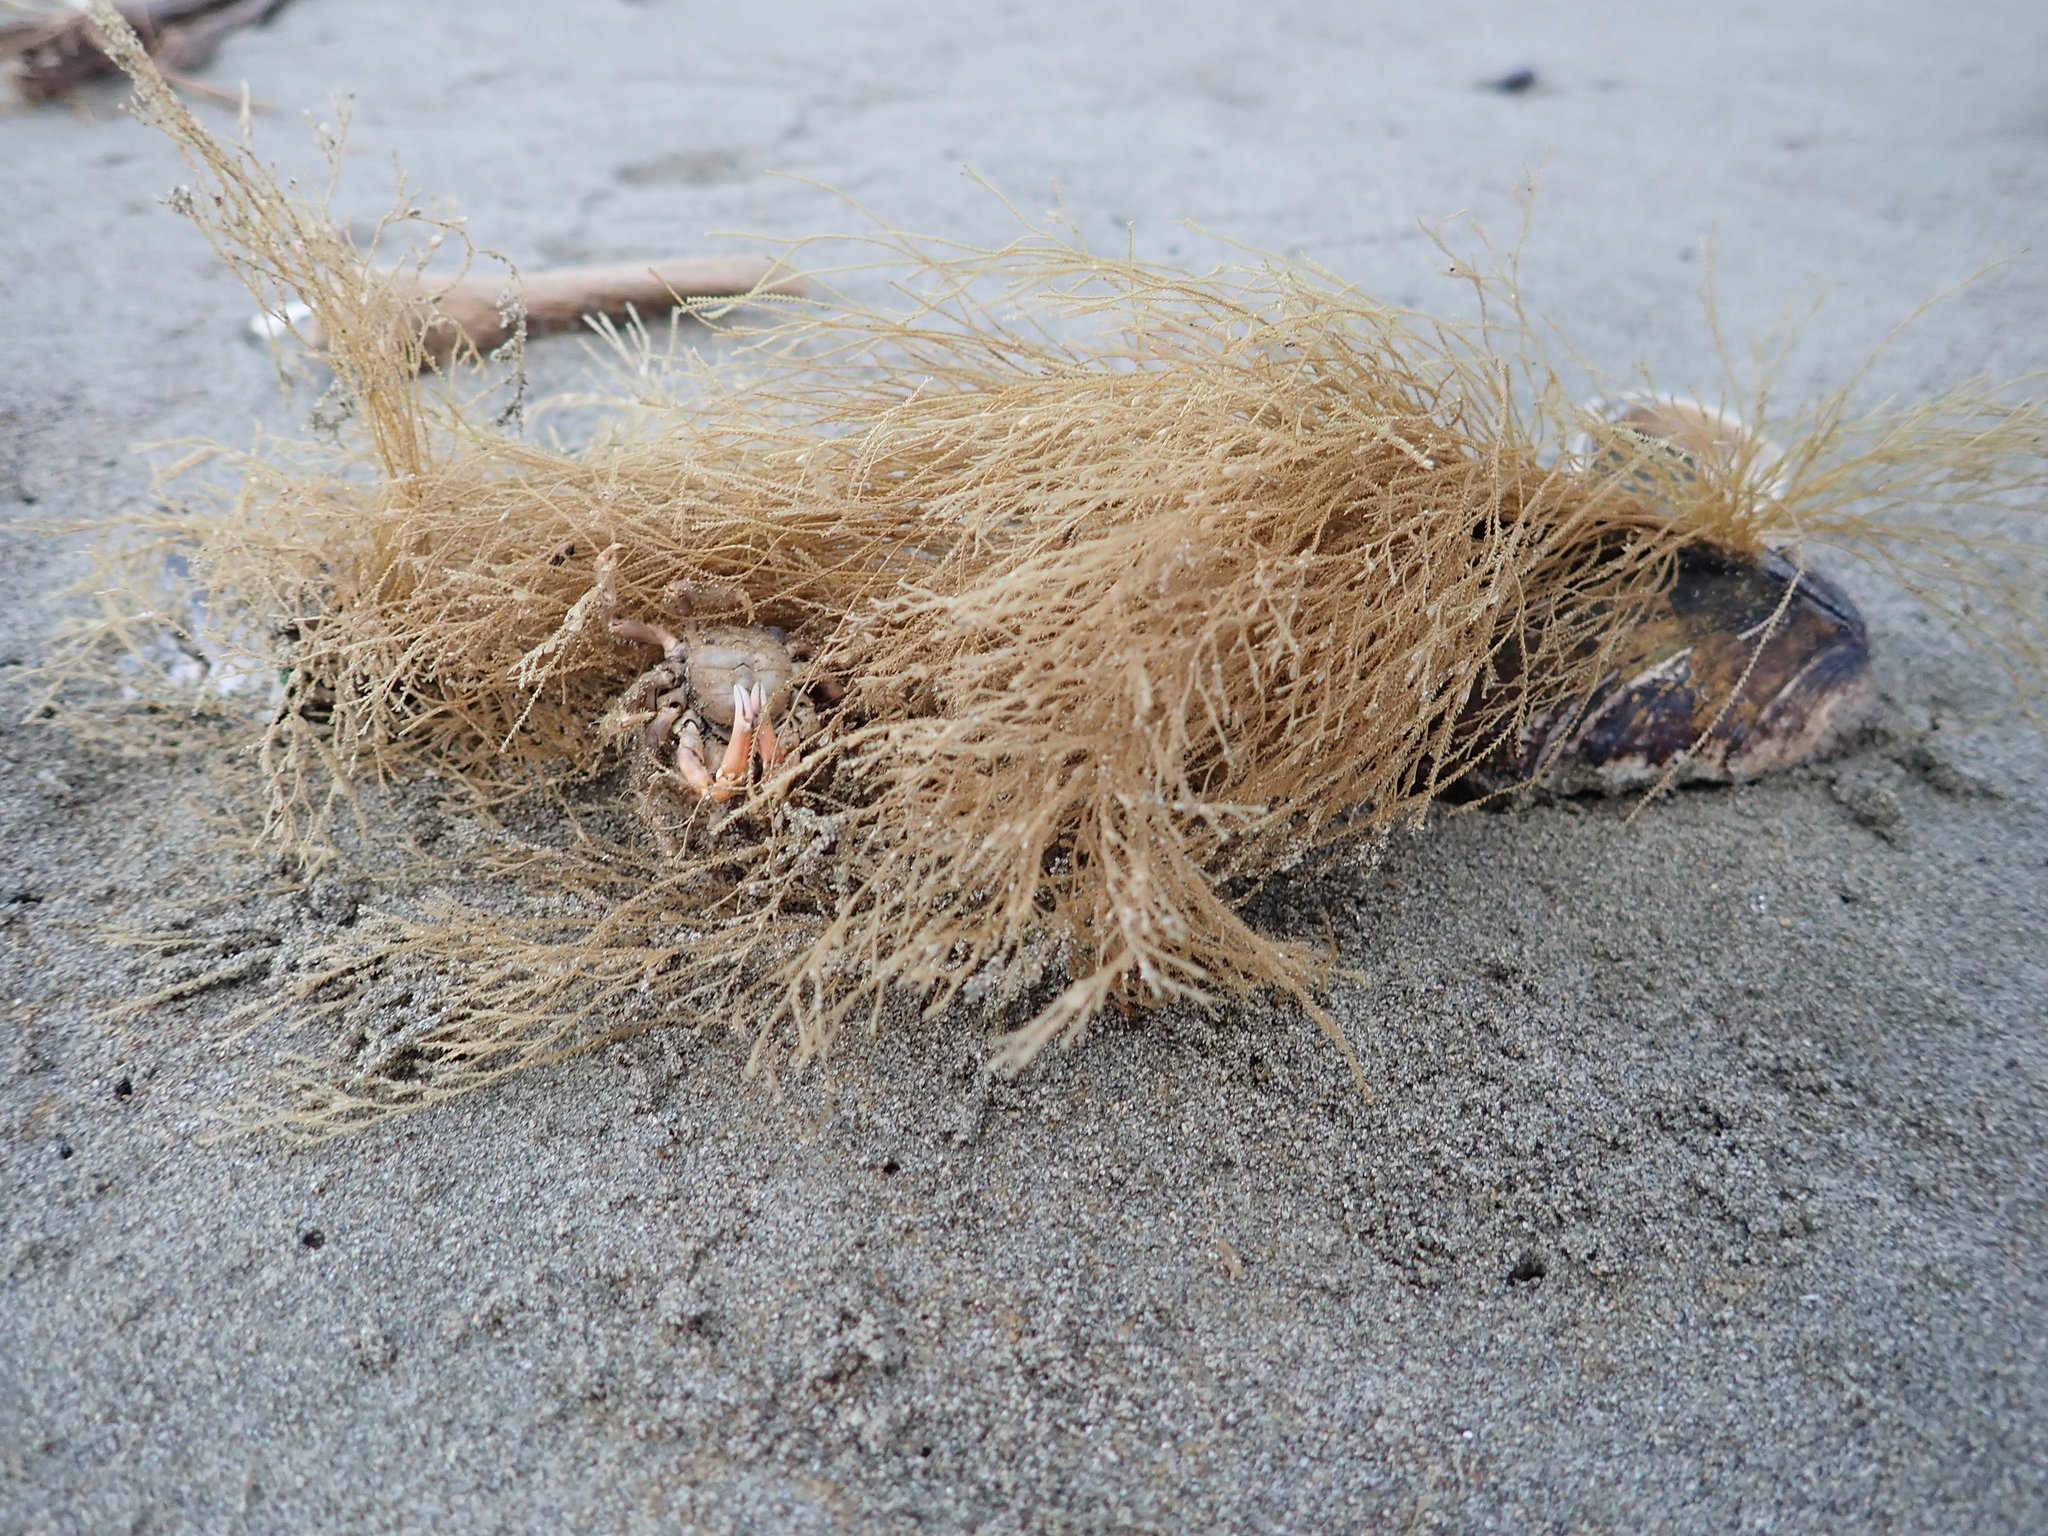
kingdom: Animalia
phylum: Cnidaria
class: Hydrozoa
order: Leptothecata
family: Sertulariidae
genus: Amphisbetia
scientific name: Amphisbetia bispinosa
